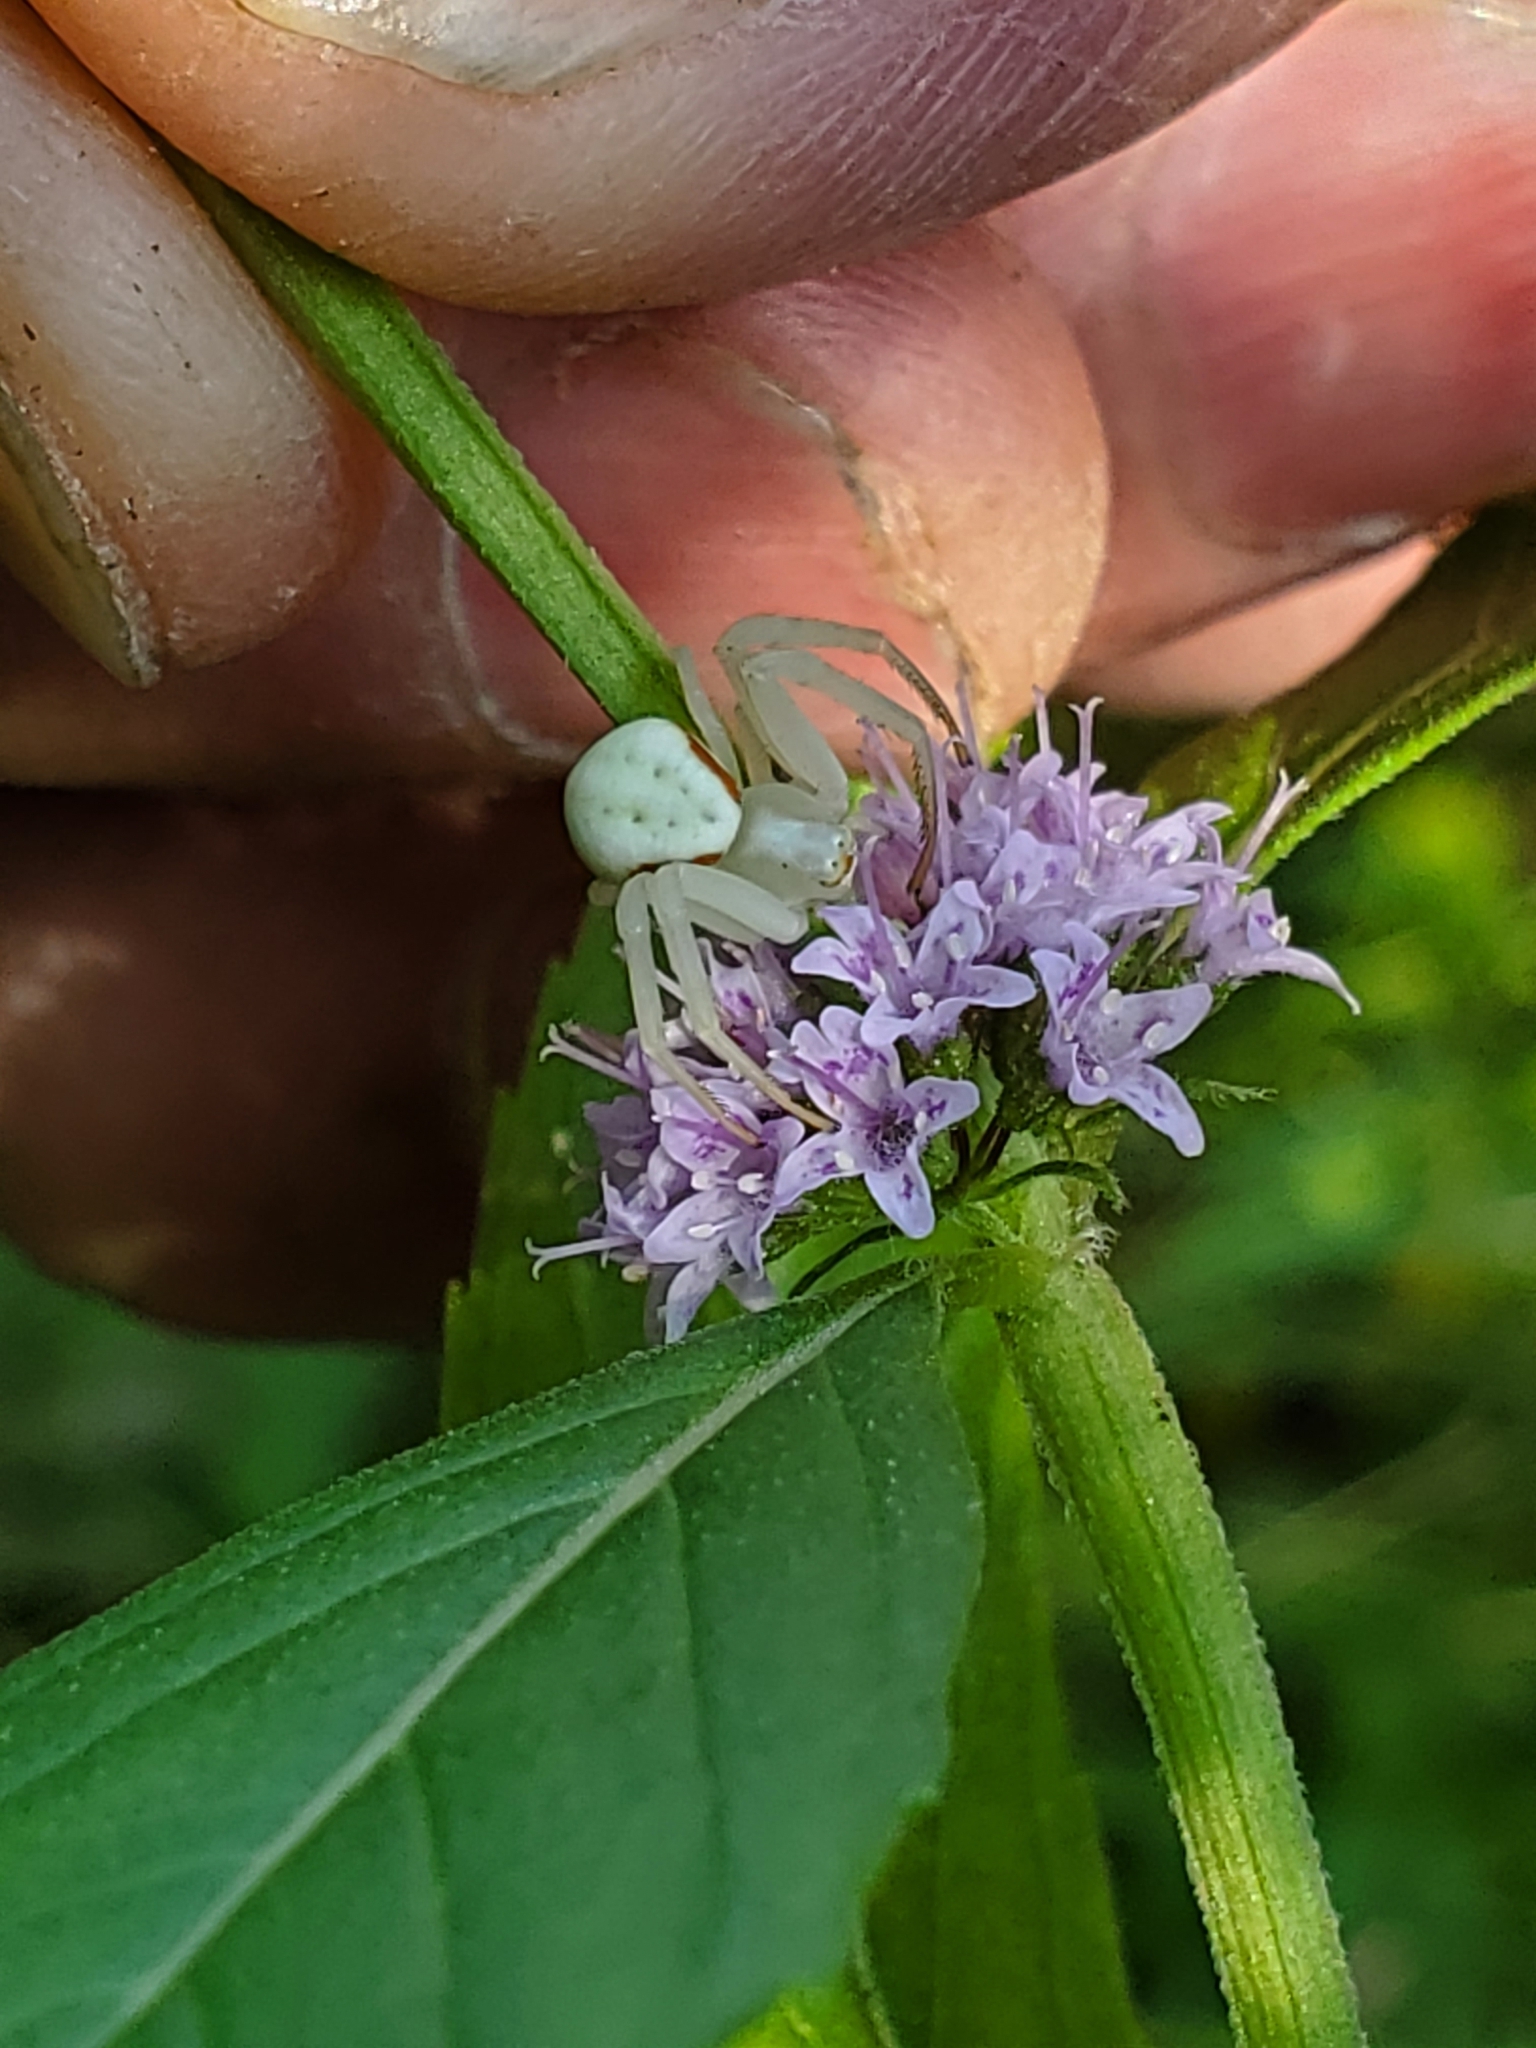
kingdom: Animalia
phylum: Arthropoda
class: Arachnida
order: Araneae
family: Thomisidae
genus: Misumena
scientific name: Misumena vatia
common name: Goldenrod crab spider
